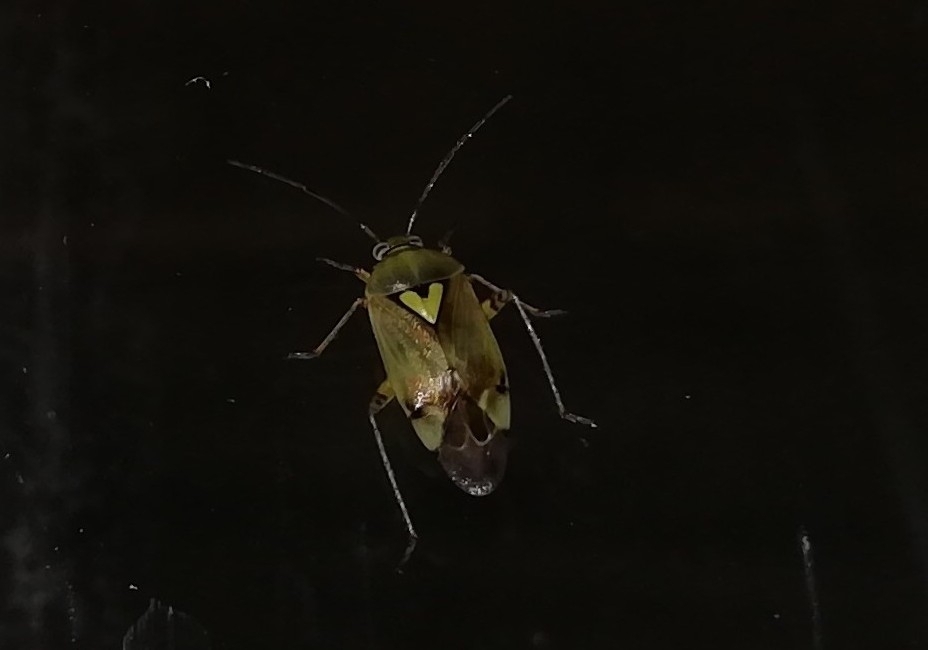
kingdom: Animalia
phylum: Arthropoda
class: Insecta
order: Hemiptera
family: Miridae
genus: Lygus
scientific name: Lygus pratensis
